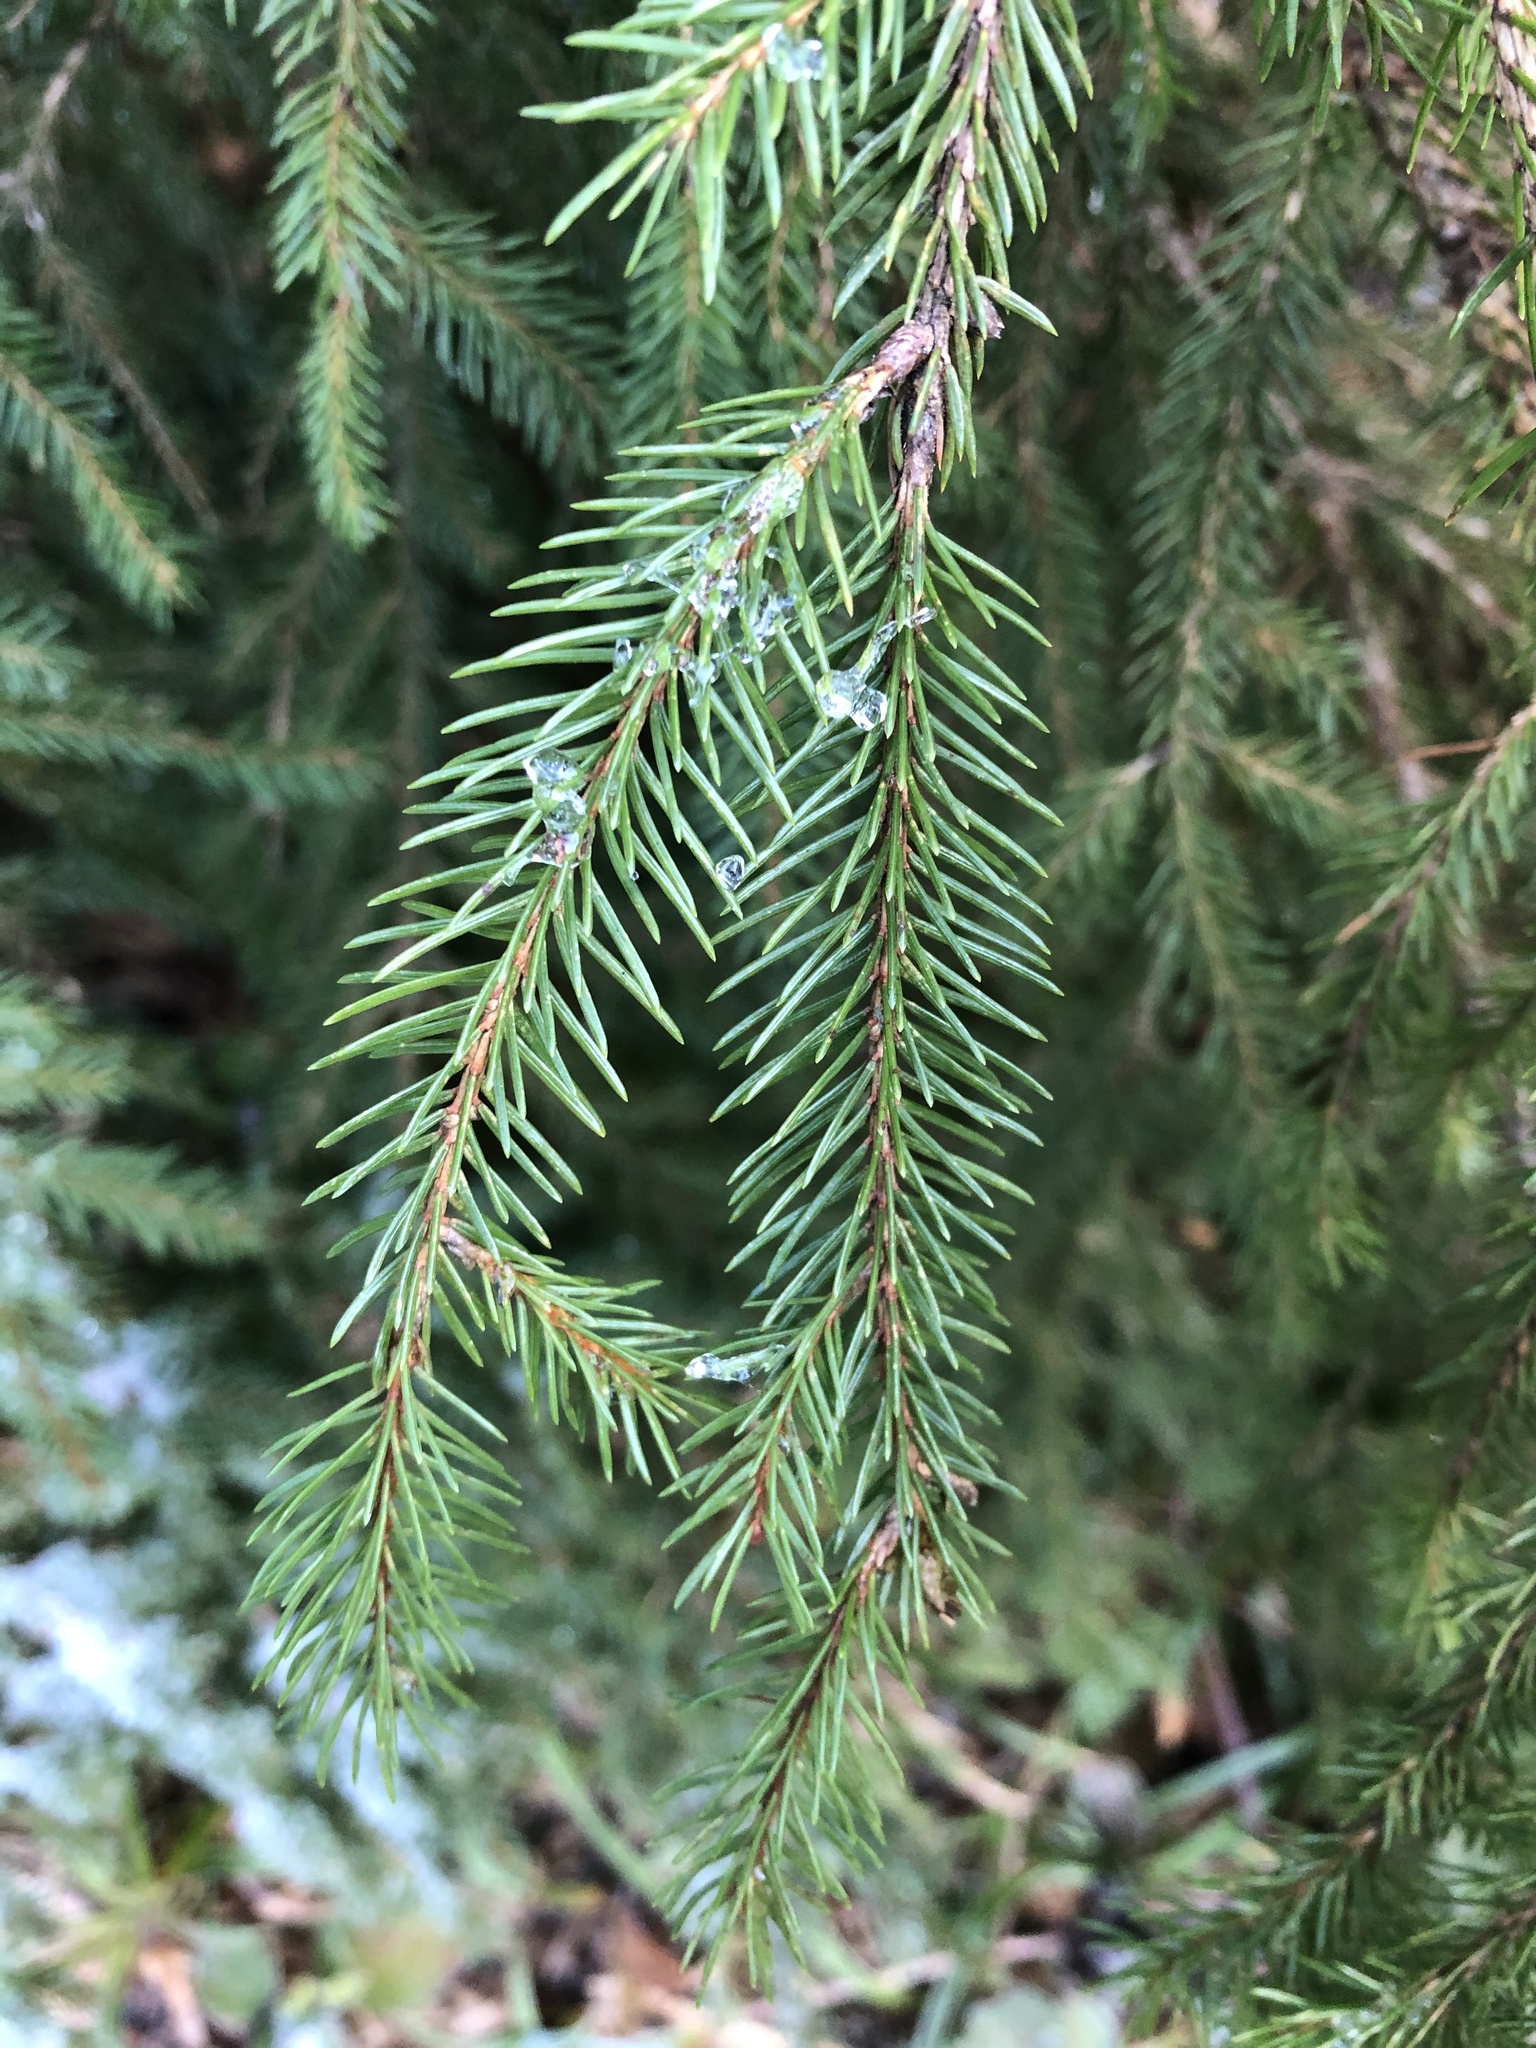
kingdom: Plantae
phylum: Tracheophyta
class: Pinopsida
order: Pinales
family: Pinaceae
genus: Picea
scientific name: Picea abies
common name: Norway spruce
